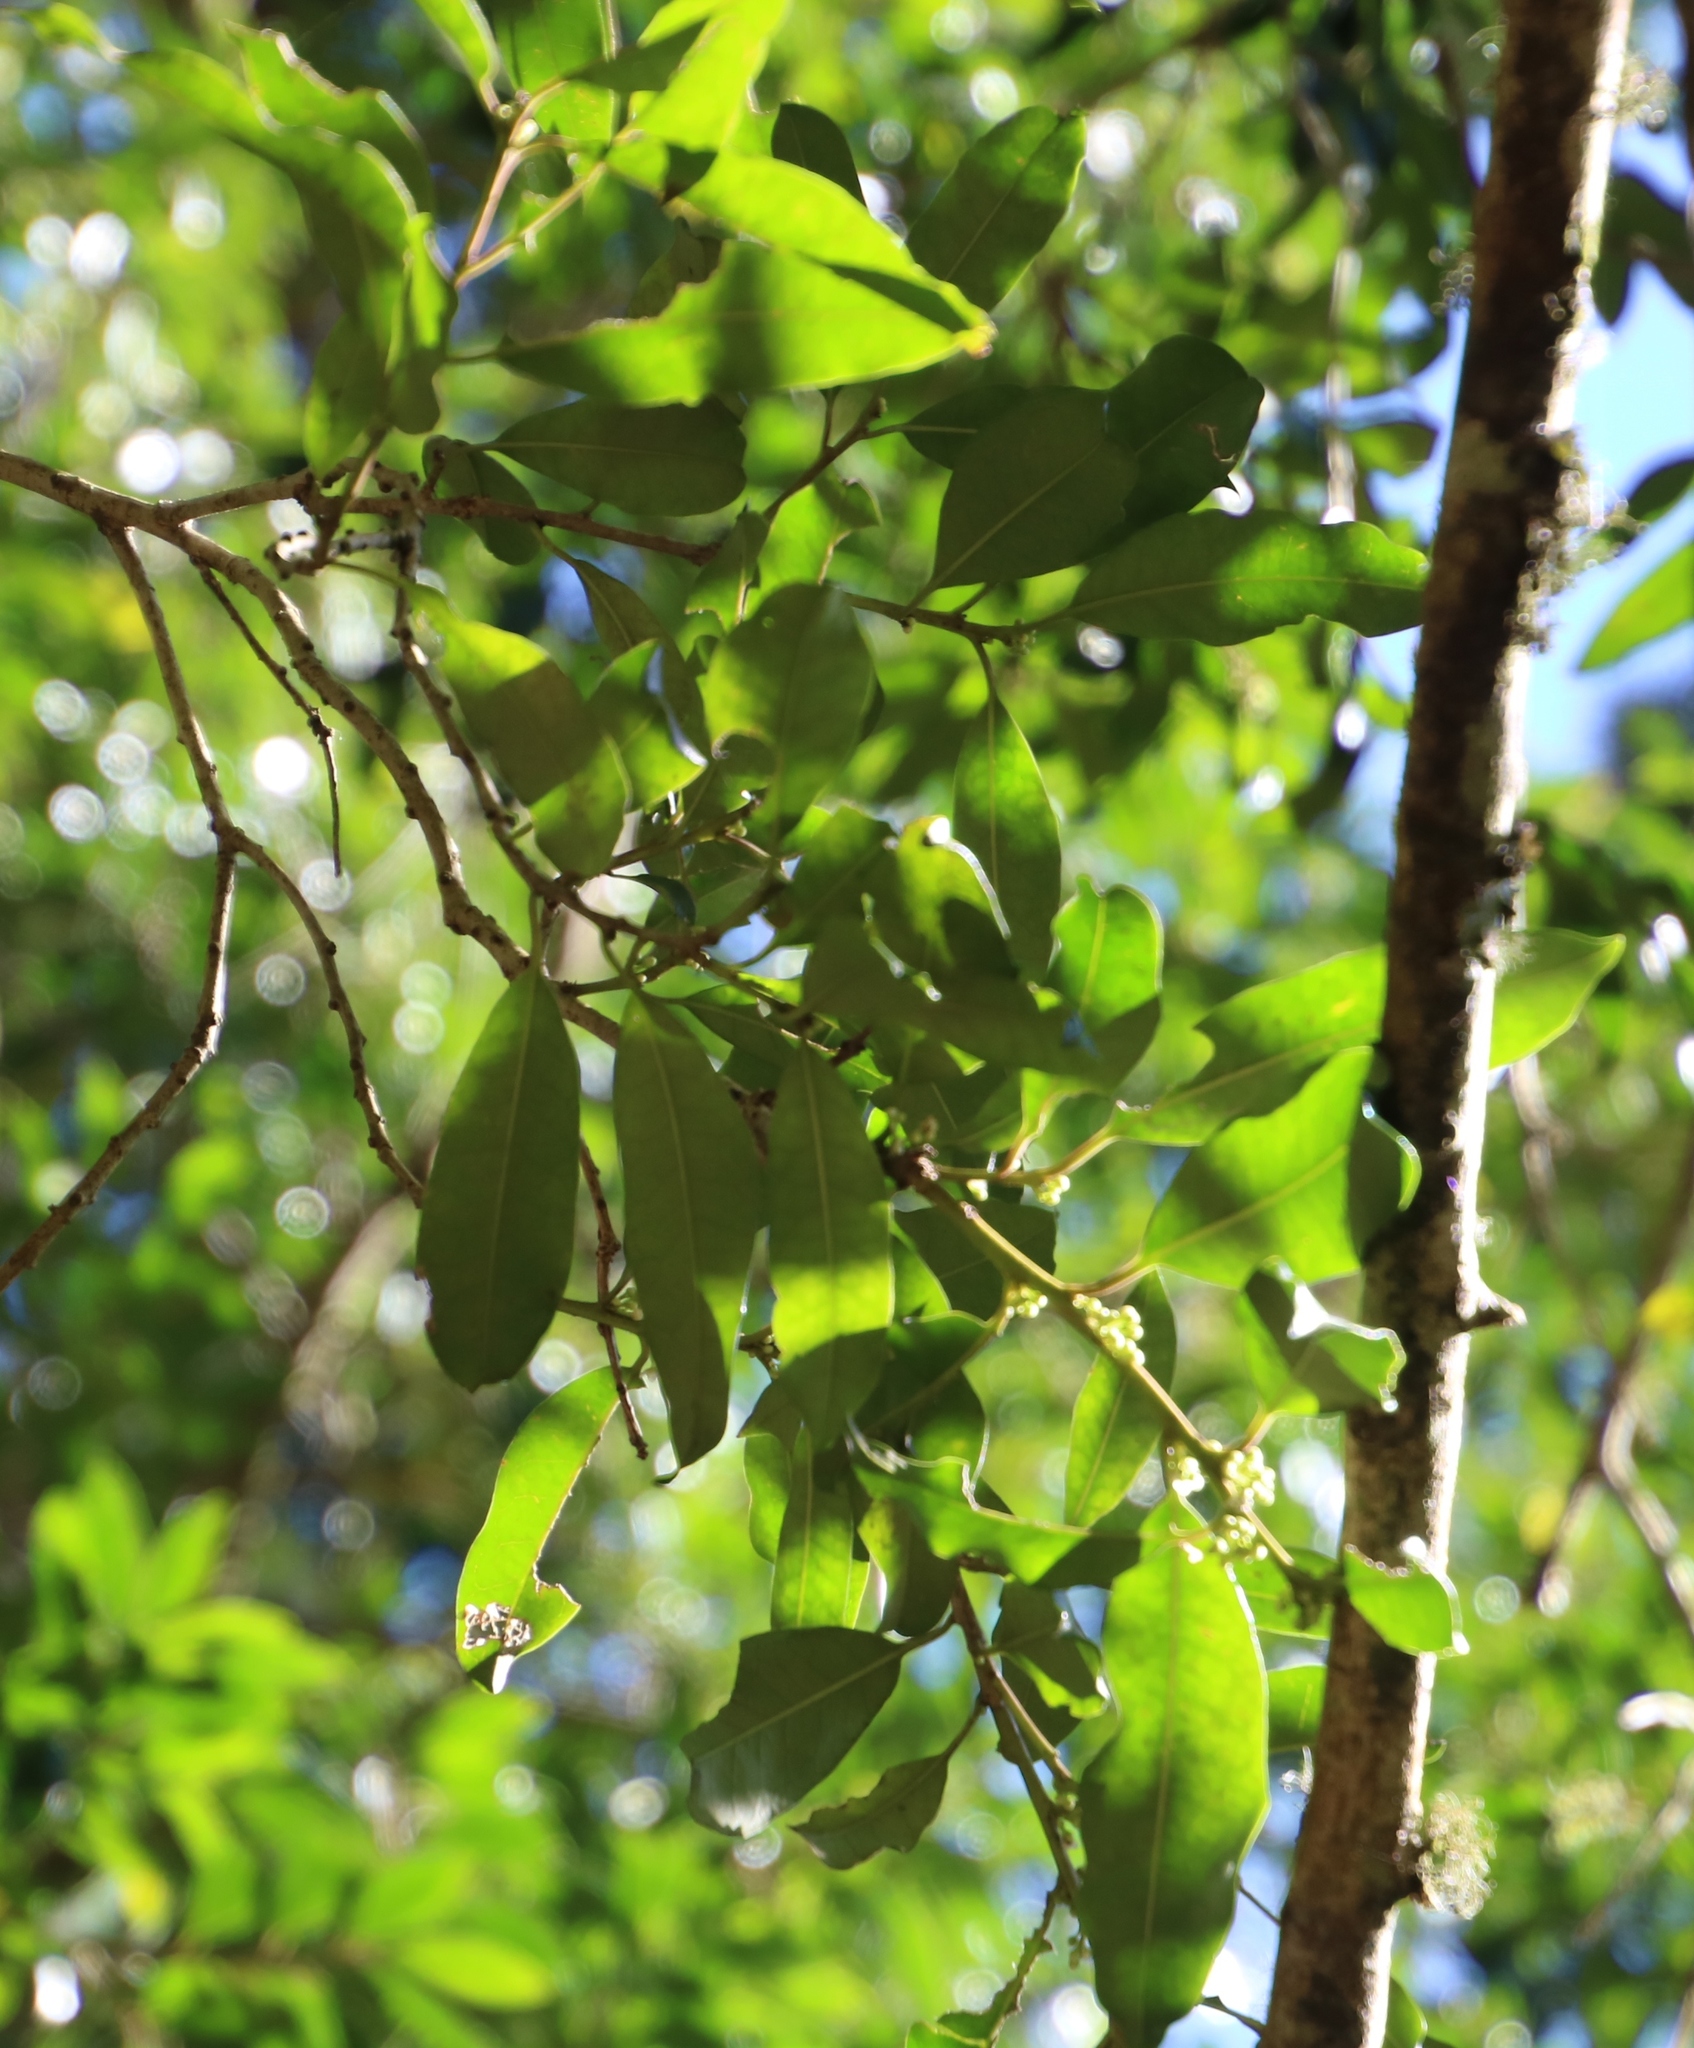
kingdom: Plantae
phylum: Tracheophyta
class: Magnoliopsida
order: Aquifoliales
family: Aquifoliaceae
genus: Ilex
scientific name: Ilex mitis
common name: African holly
